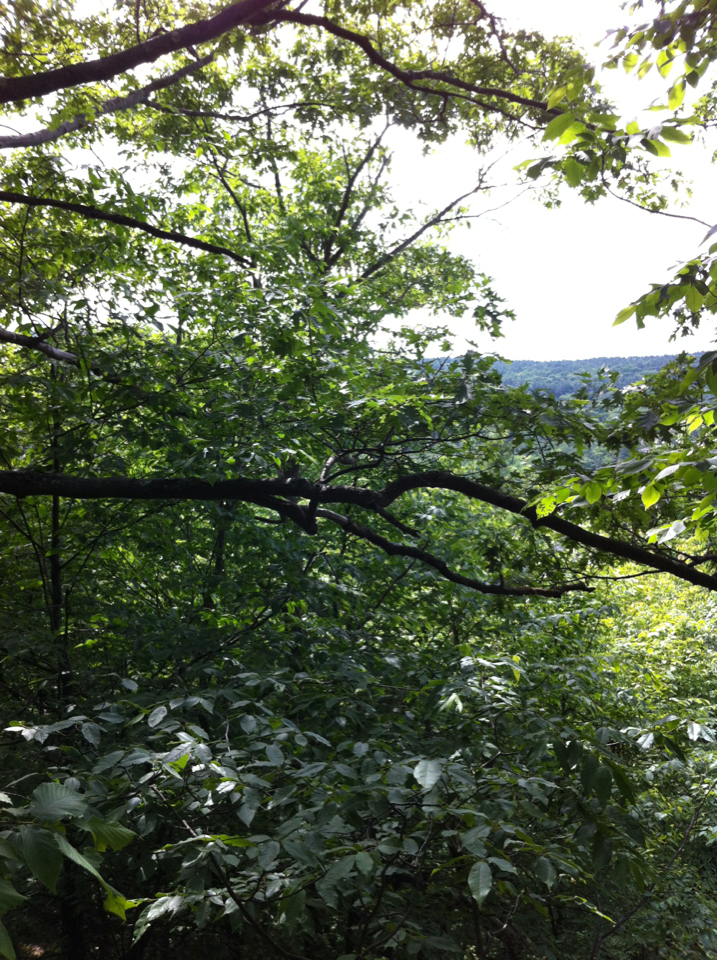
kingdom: Plantae
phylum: Tracheophyta
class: Magnoliopsida
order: Fagales
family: Fagaceae
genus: Quercus
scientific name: Quercus rubra
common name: Red oak
